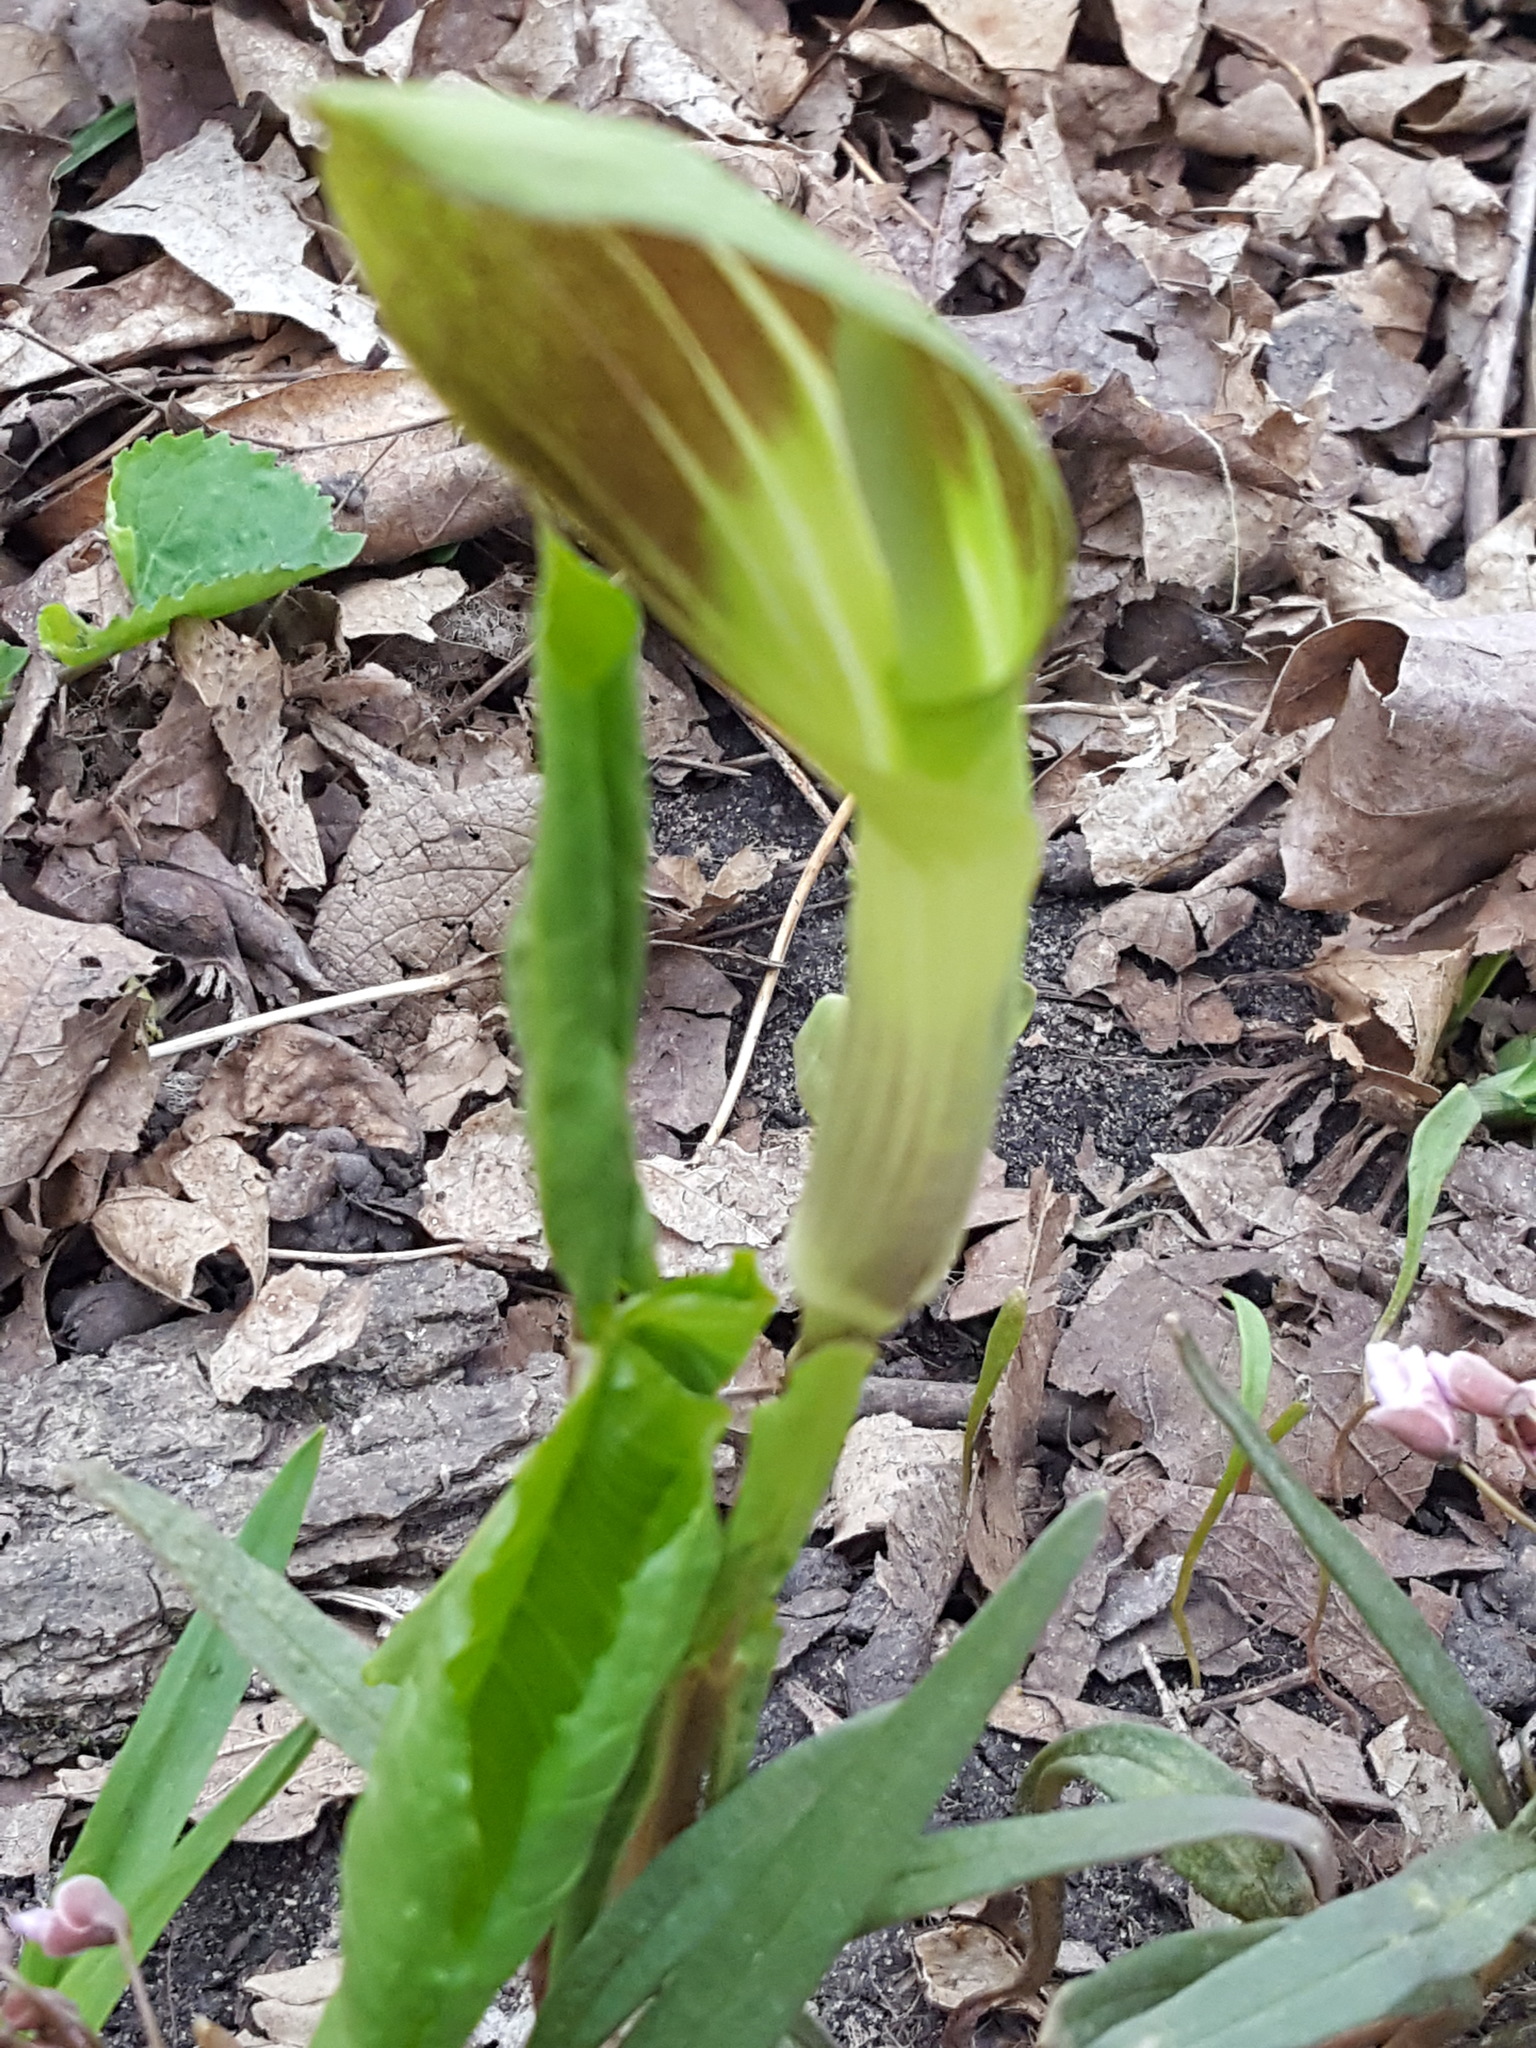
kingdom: Plantae
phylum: Tracheophyta
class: Liliopsida
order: Alismatales
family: Araceae
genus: Arisaema
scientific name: Arisaema triphyllum
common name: Jack-in-the-pulpit
